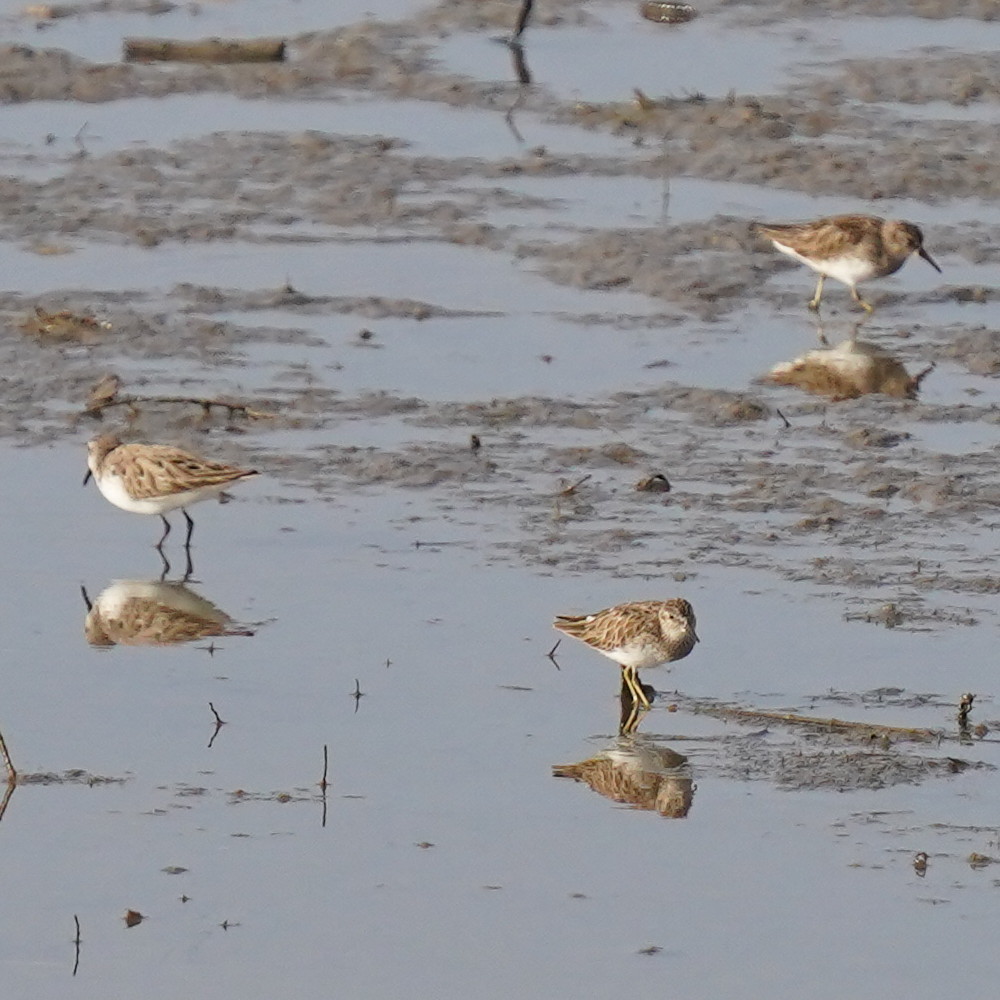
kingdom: Animalia
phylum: Chordata
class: Aves
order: Charadriiformes
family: Scolopacidae
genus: Calidris
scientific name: Calidris minutilla
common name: Least sandpiper
